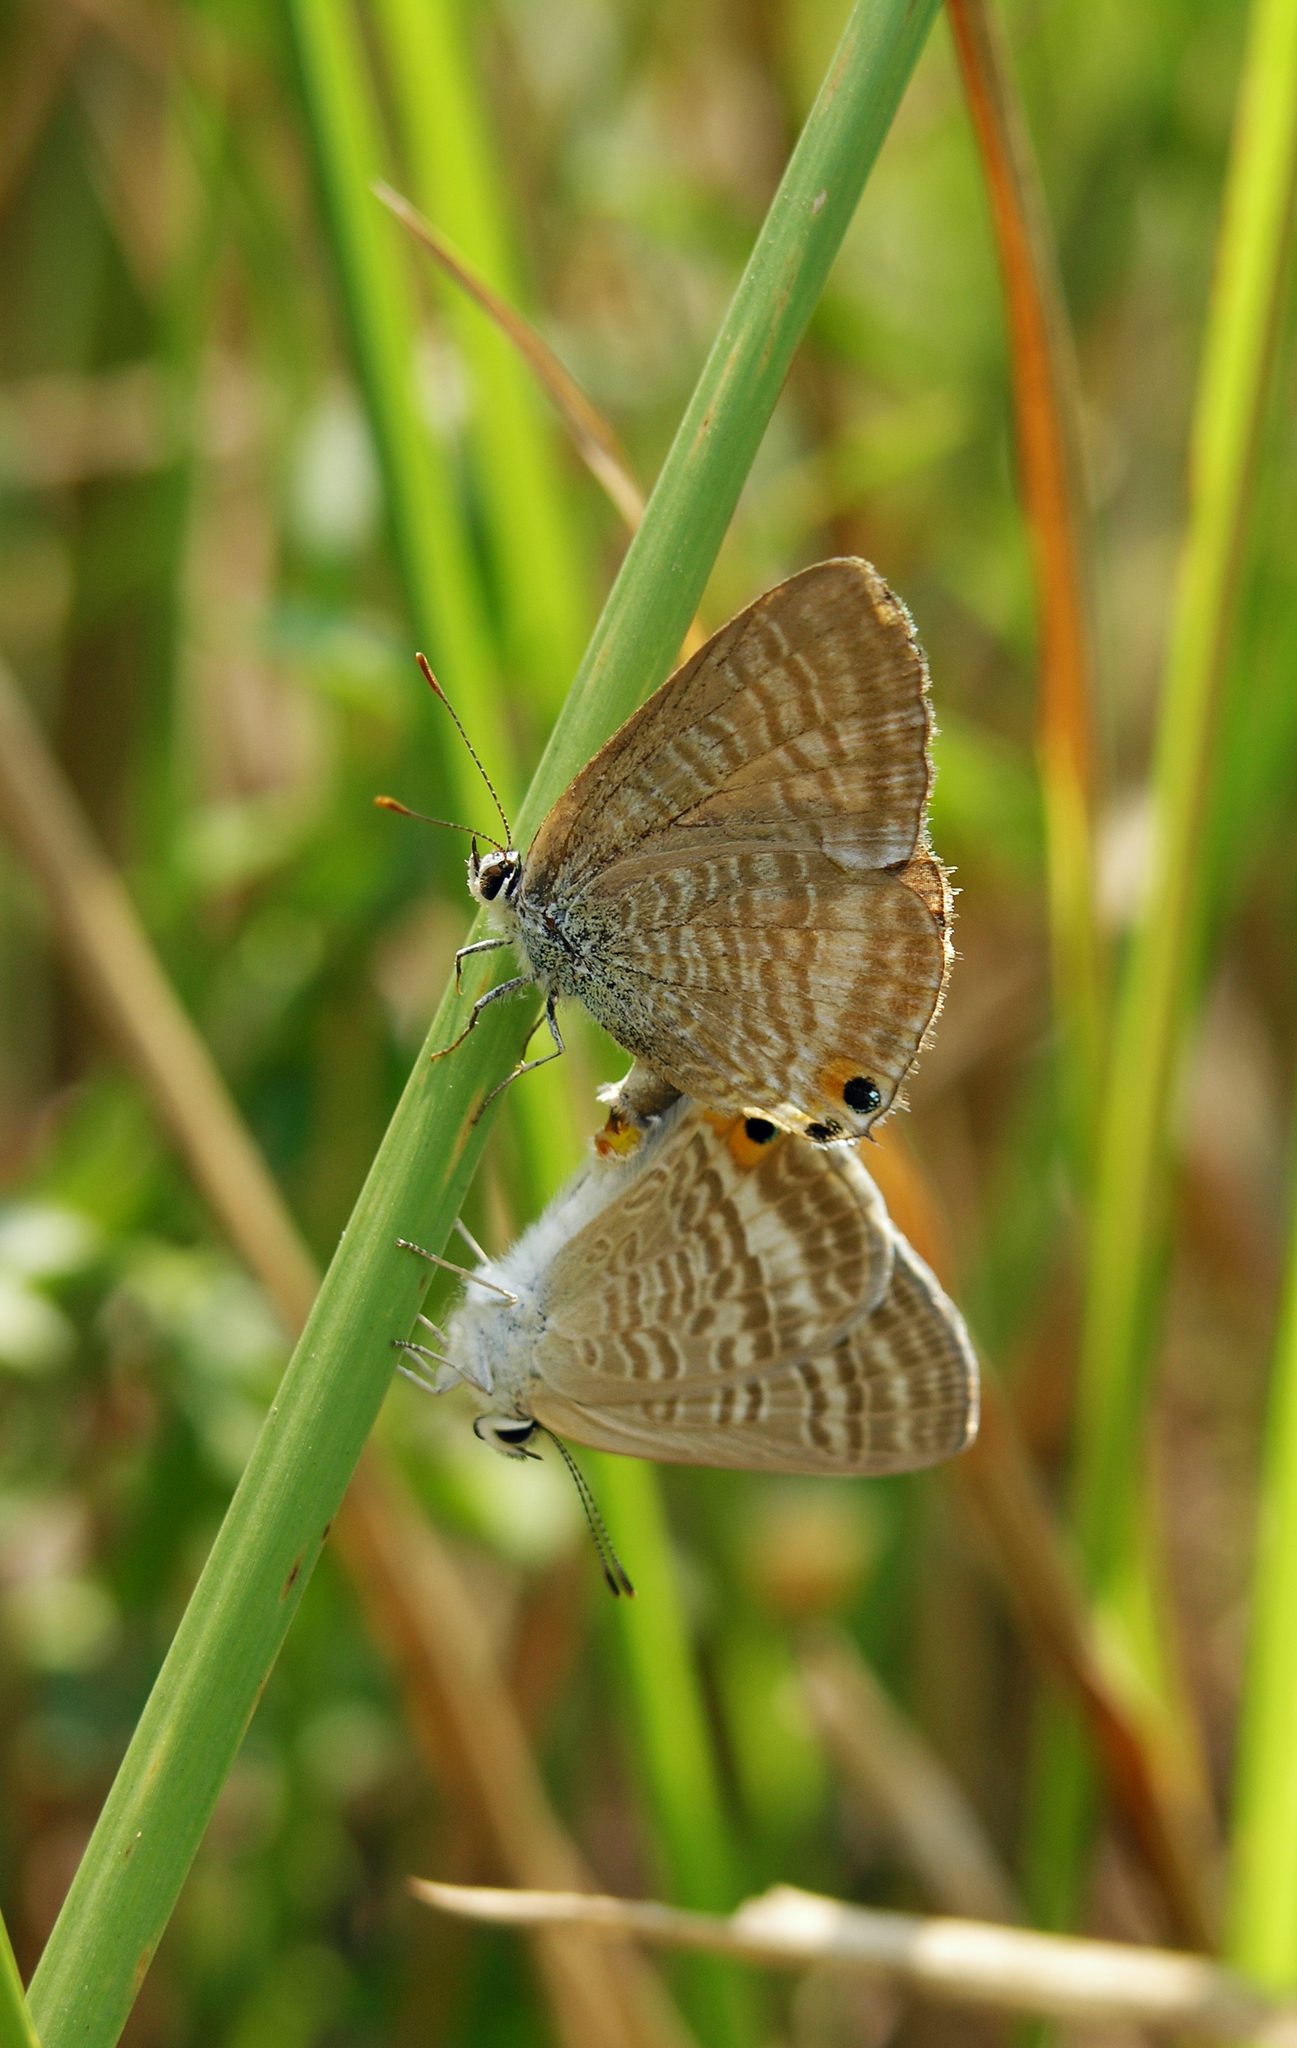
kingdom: Animalia
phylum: Arthropoda
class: Insecta
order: Lepidoptera
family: Lycaenidae
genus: Lampides
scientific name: Lampides boeticus
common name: Long-tailed blue
